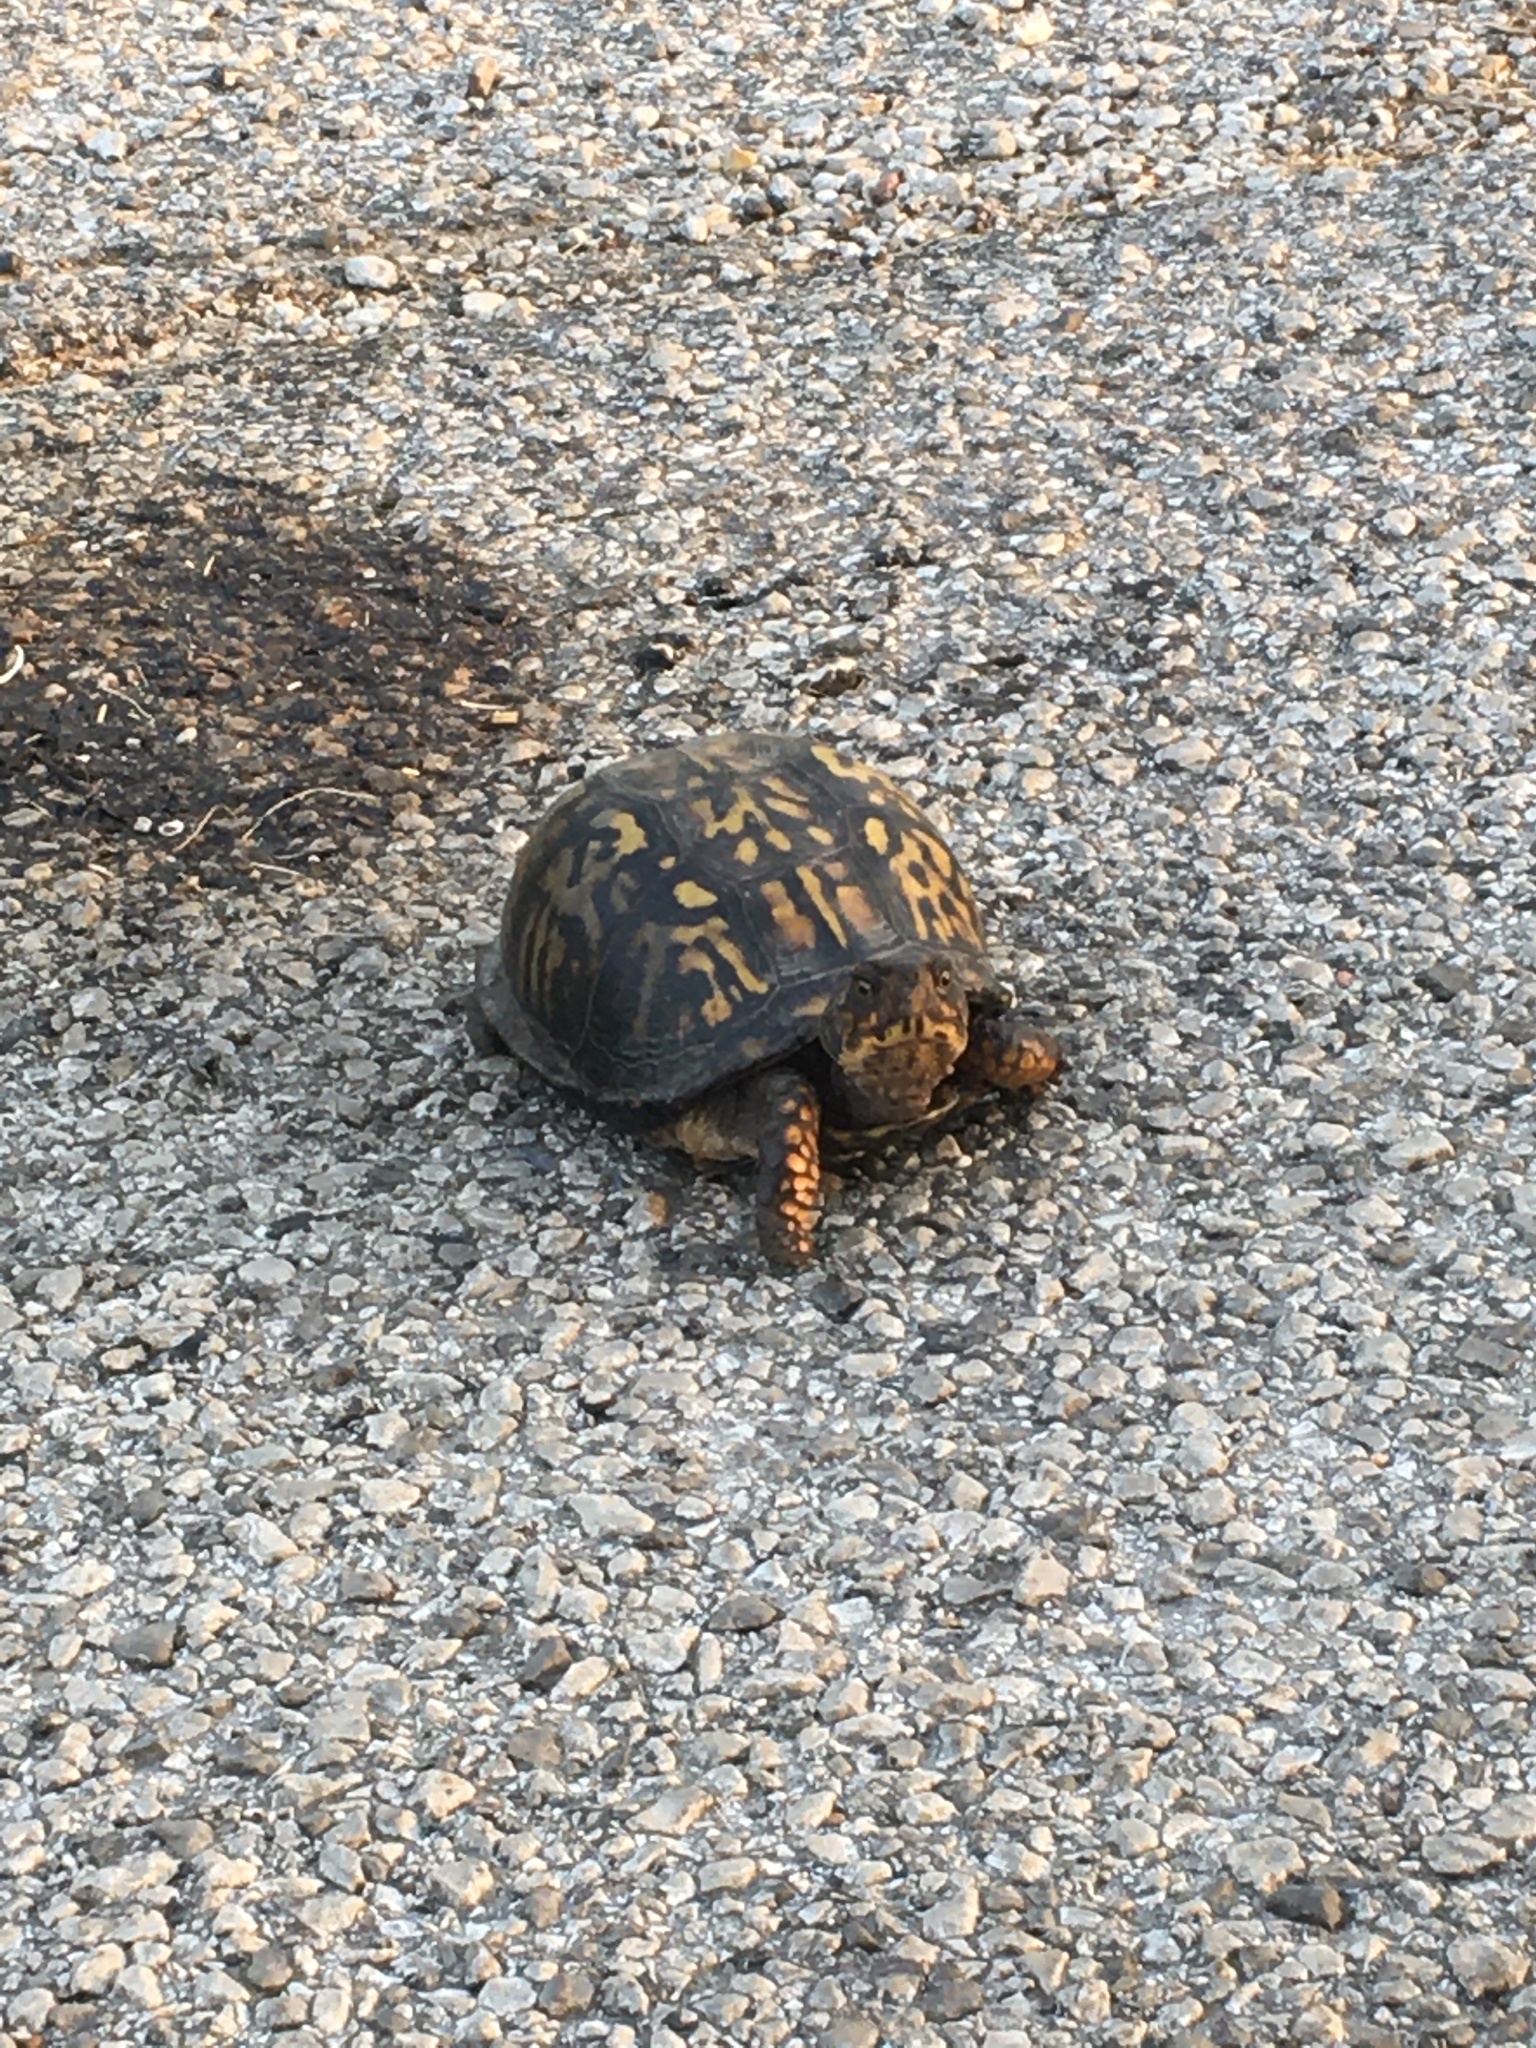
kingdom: Animalia
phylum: Chordata
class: Testudines
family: Emydidae
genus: Terrapene
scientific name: Terrapene carolina
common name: Common box turtle
